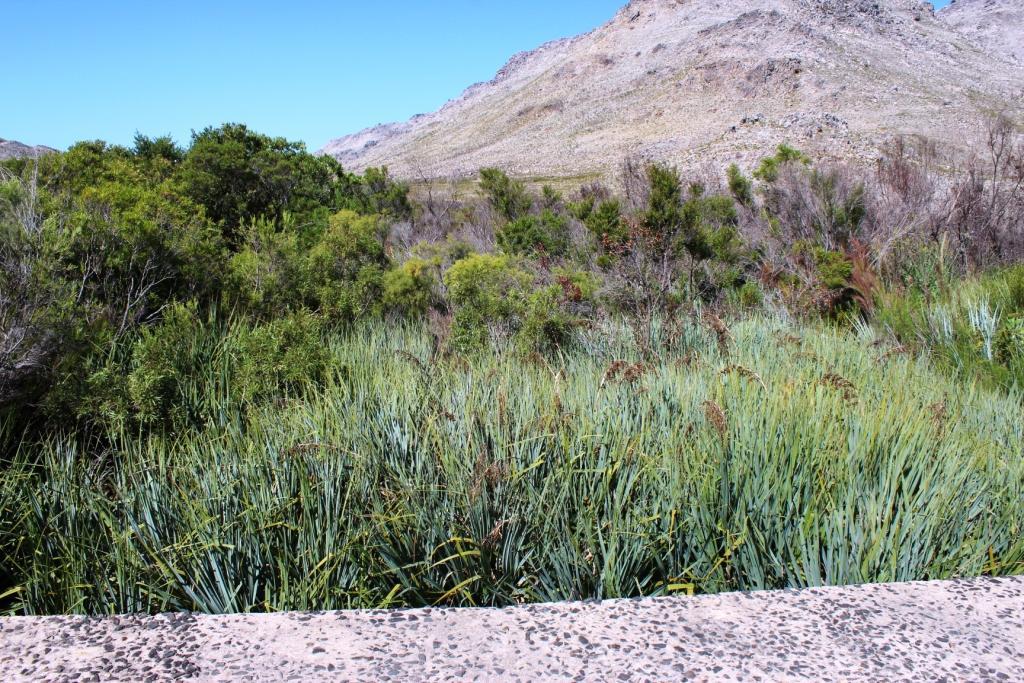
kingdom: Plantae
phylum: Tracheophyta
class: Liliopsida
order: Poales
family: Thurniaceae
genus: Prionium
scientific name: Prionium serratum
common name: Palmiet
